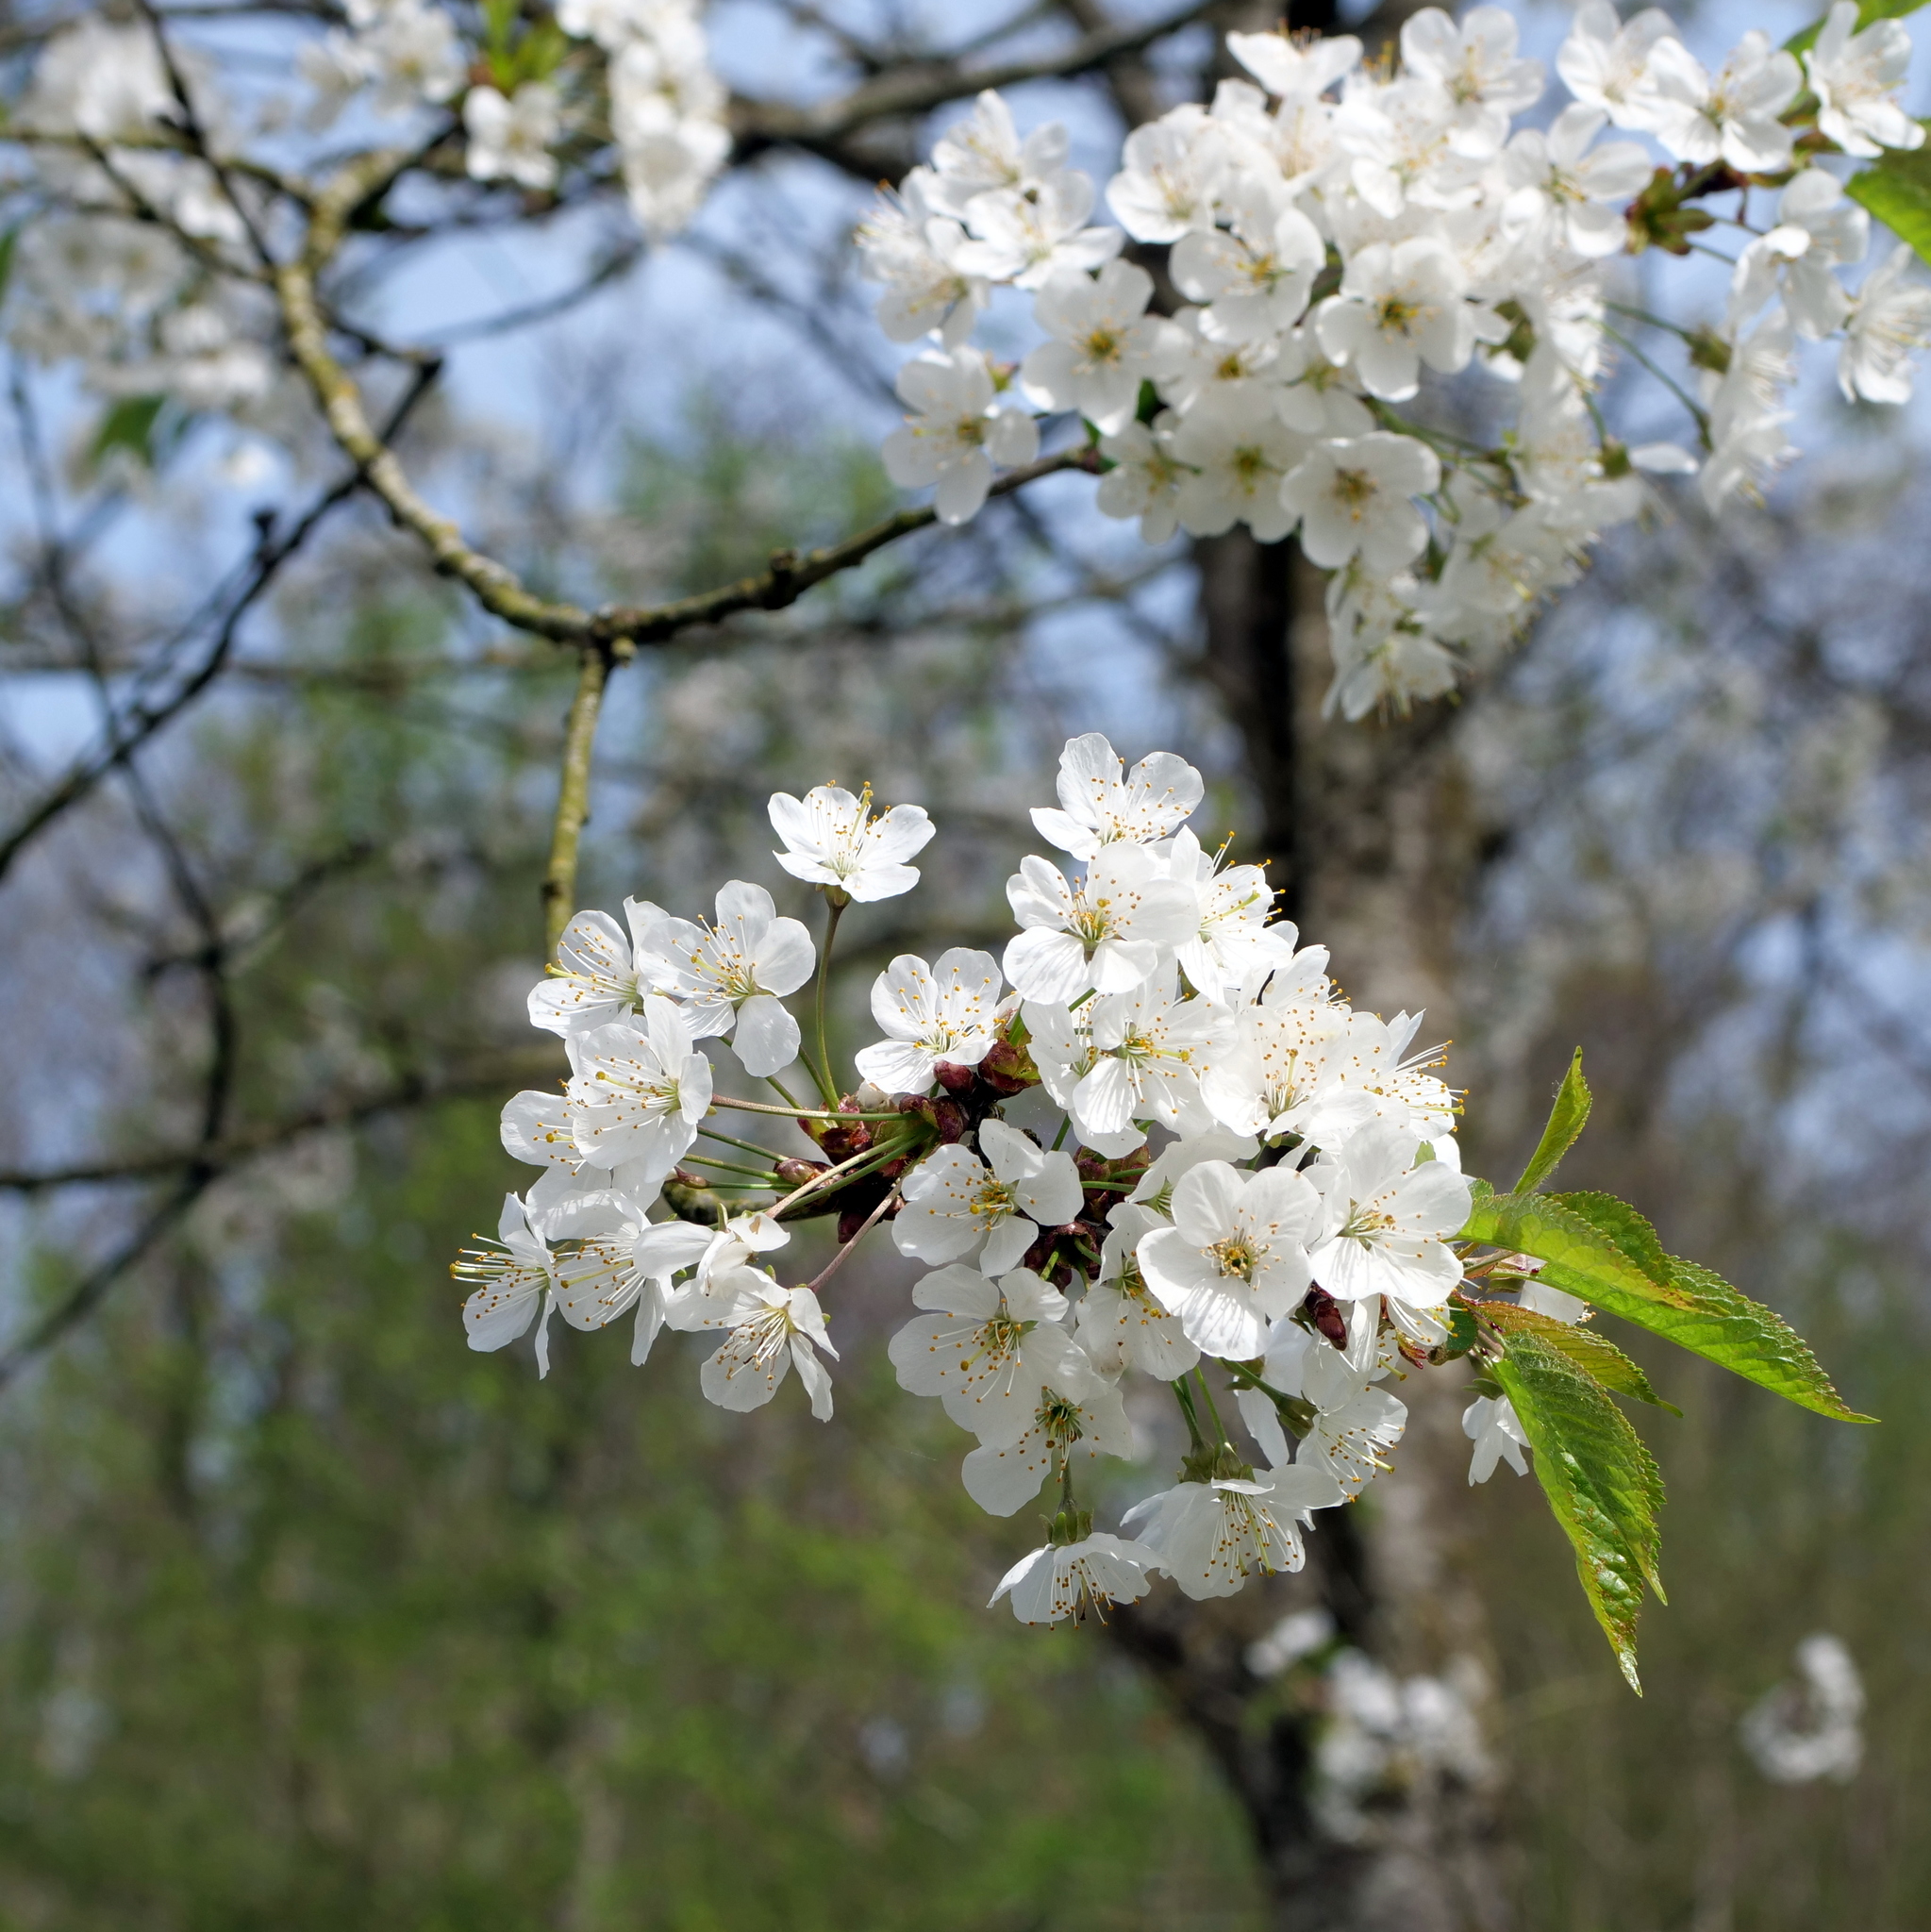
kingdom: Plantae
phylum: Tracheophyta
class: Magnoliopsida
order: Rosales
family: Rosaceae
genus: Prunus
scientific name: Prunus avium
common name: Sweet cherry
